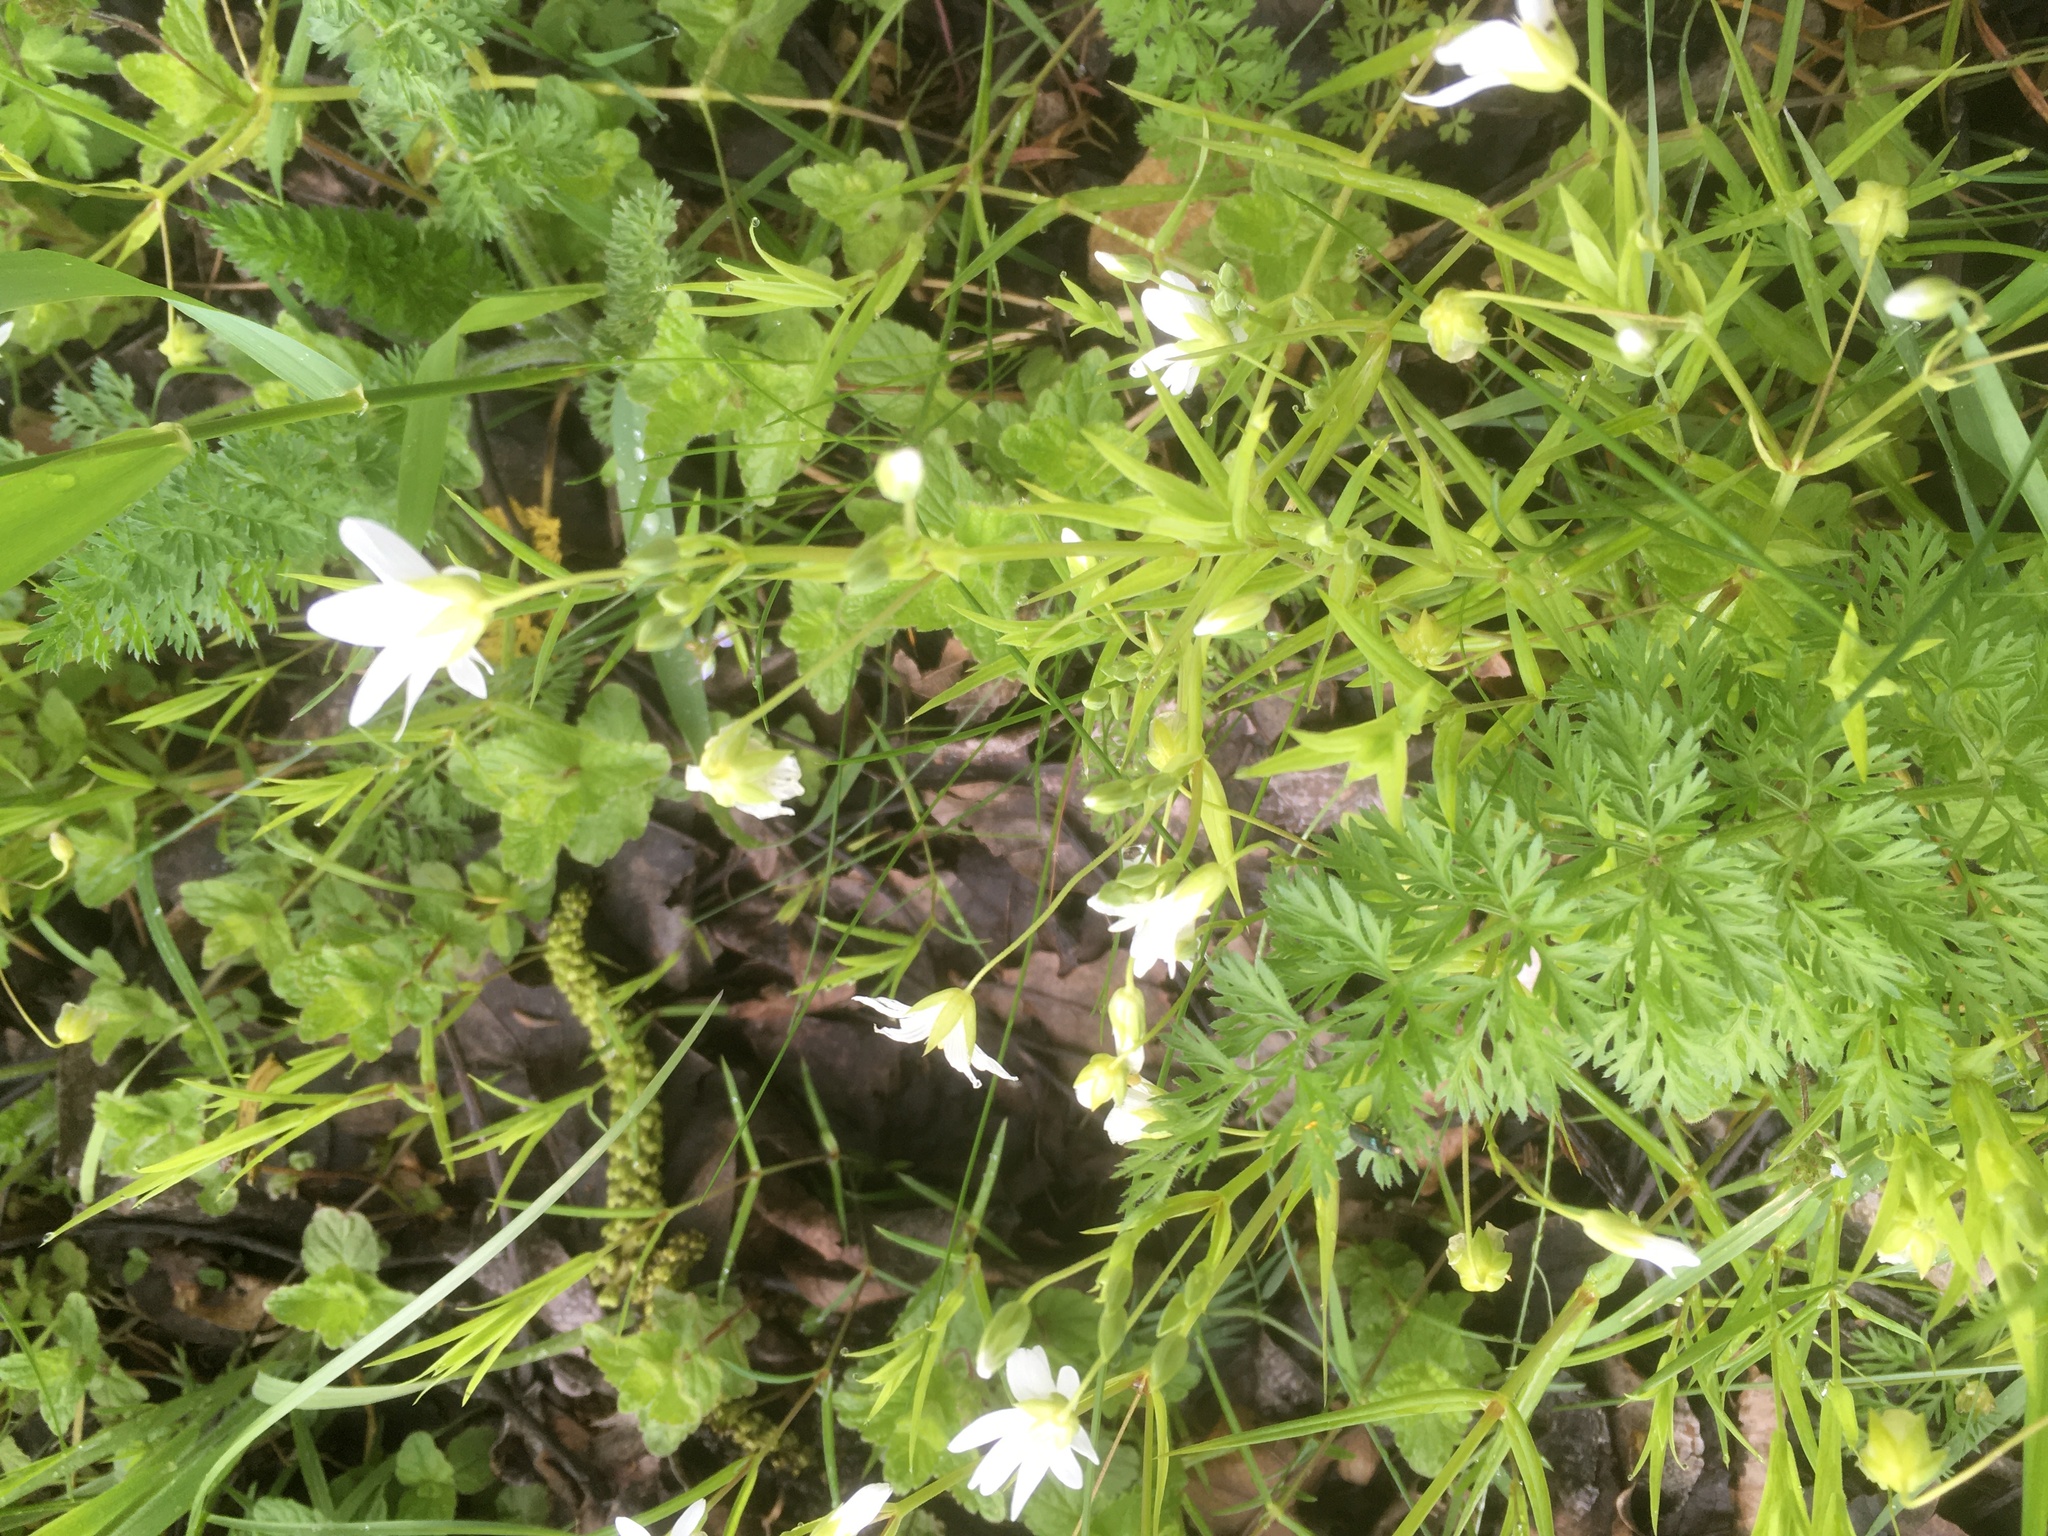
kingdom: Plantae
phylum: Tracheophyta
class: Magnoliopsida
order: Caryophyllales
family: Caryophyllaceae
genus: Rabelera
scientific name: Rabelera holostea
